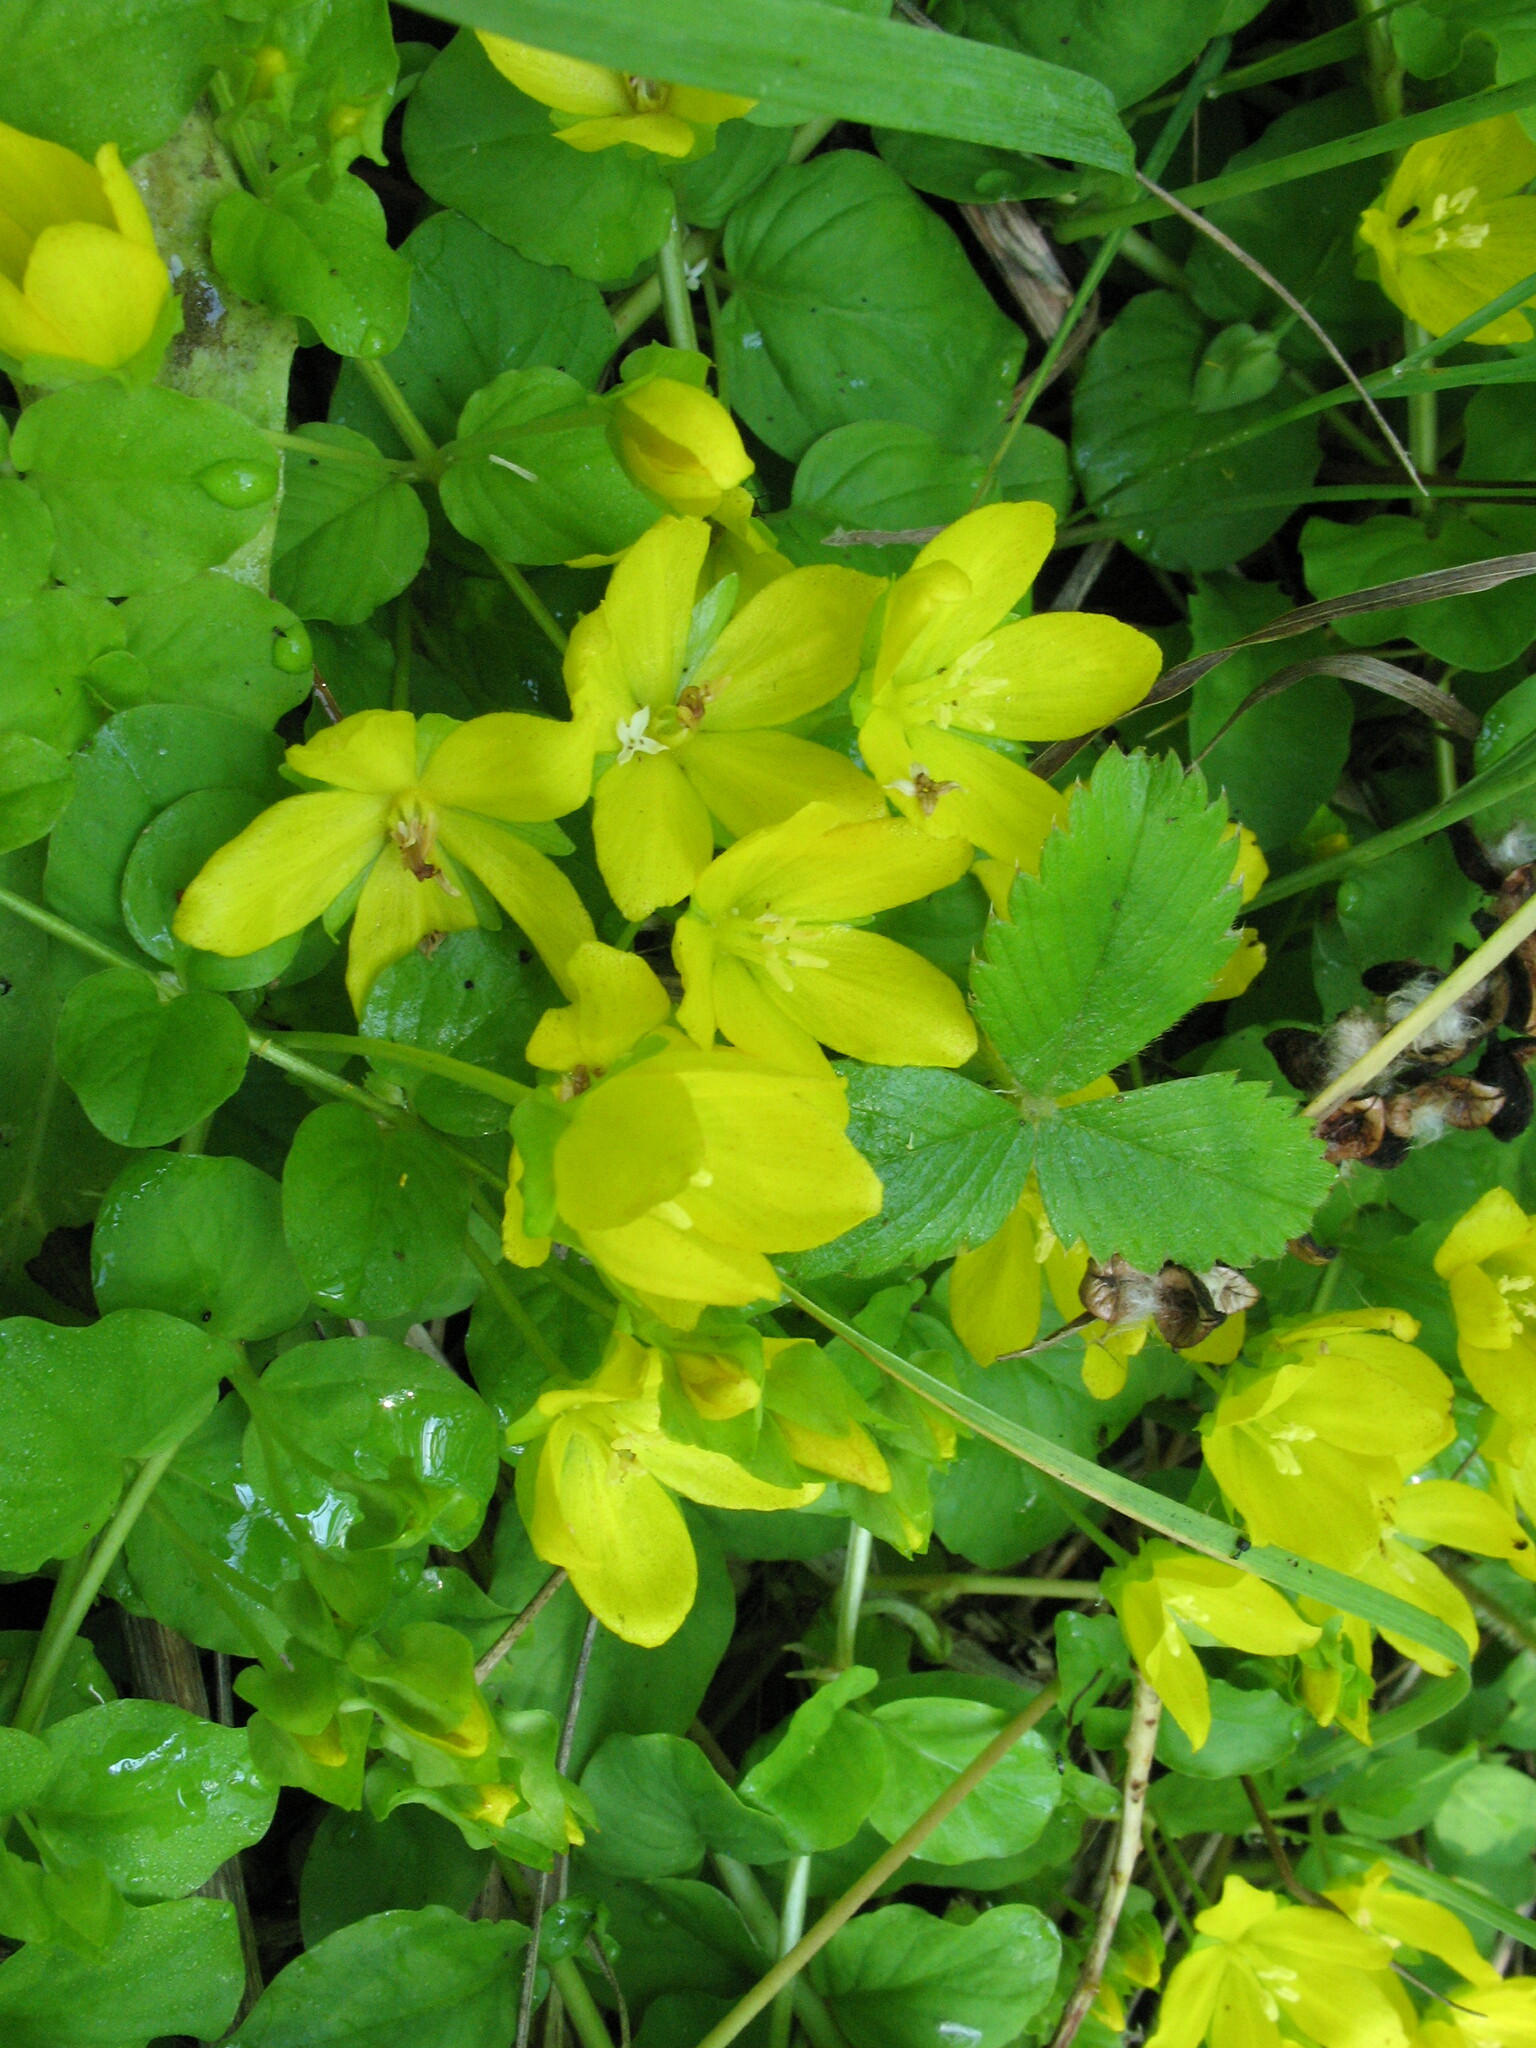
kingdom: Plantae
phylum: Tracheophyta
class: Magnoliopsida
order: Ericales
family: Primulaceae
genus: Lysimachia
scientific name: Lysimachia nummularia
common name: Moneywort
